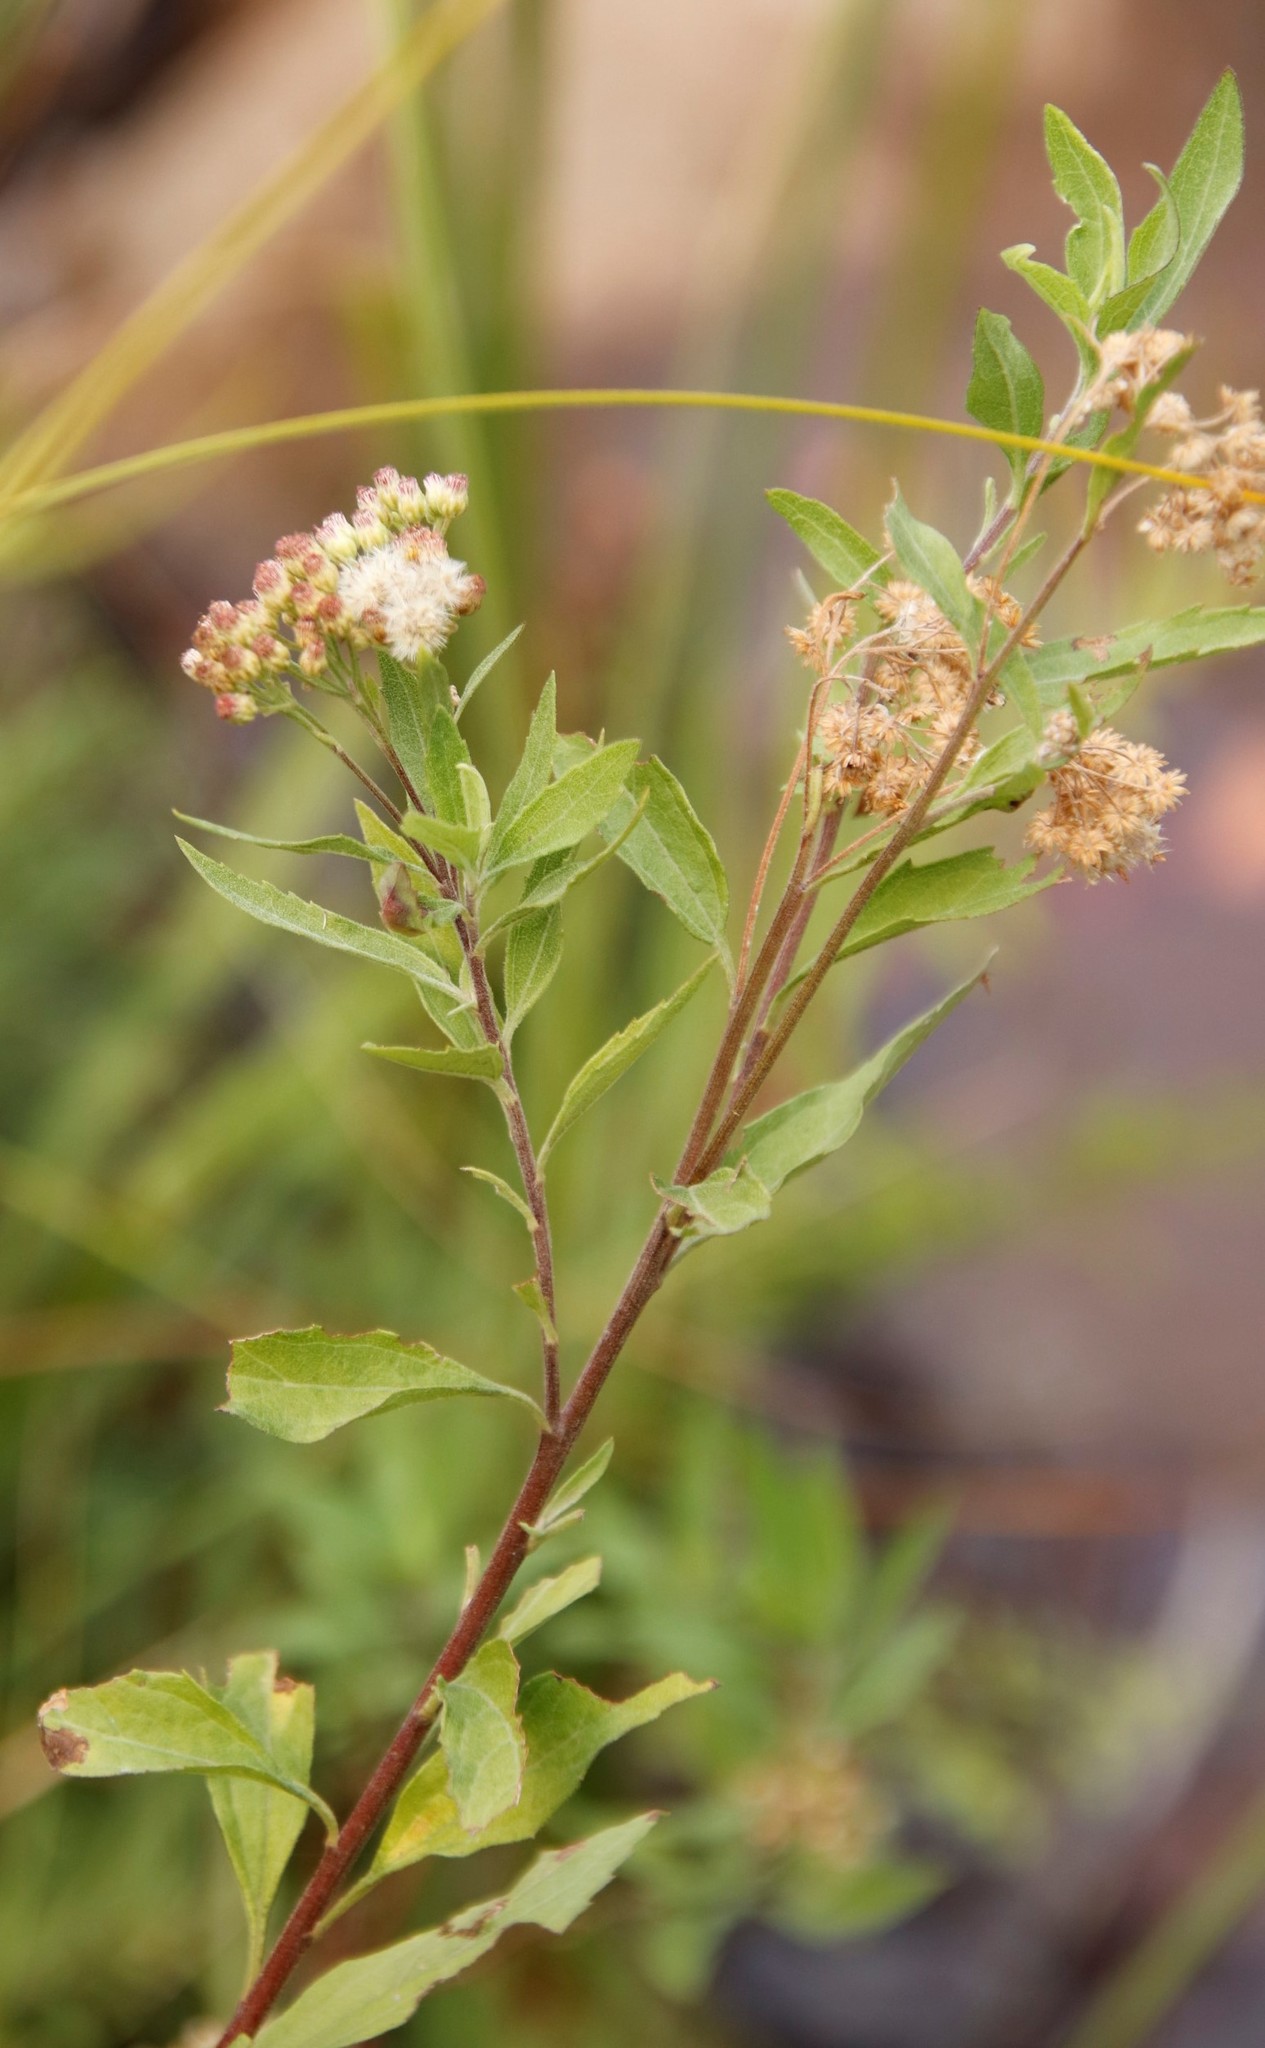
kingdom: Plantae
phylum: Tracheophyta
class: Magnoliopsida
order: Asterales
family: Asteraceae
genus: Pluchea
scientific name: Pluchea bojeri
